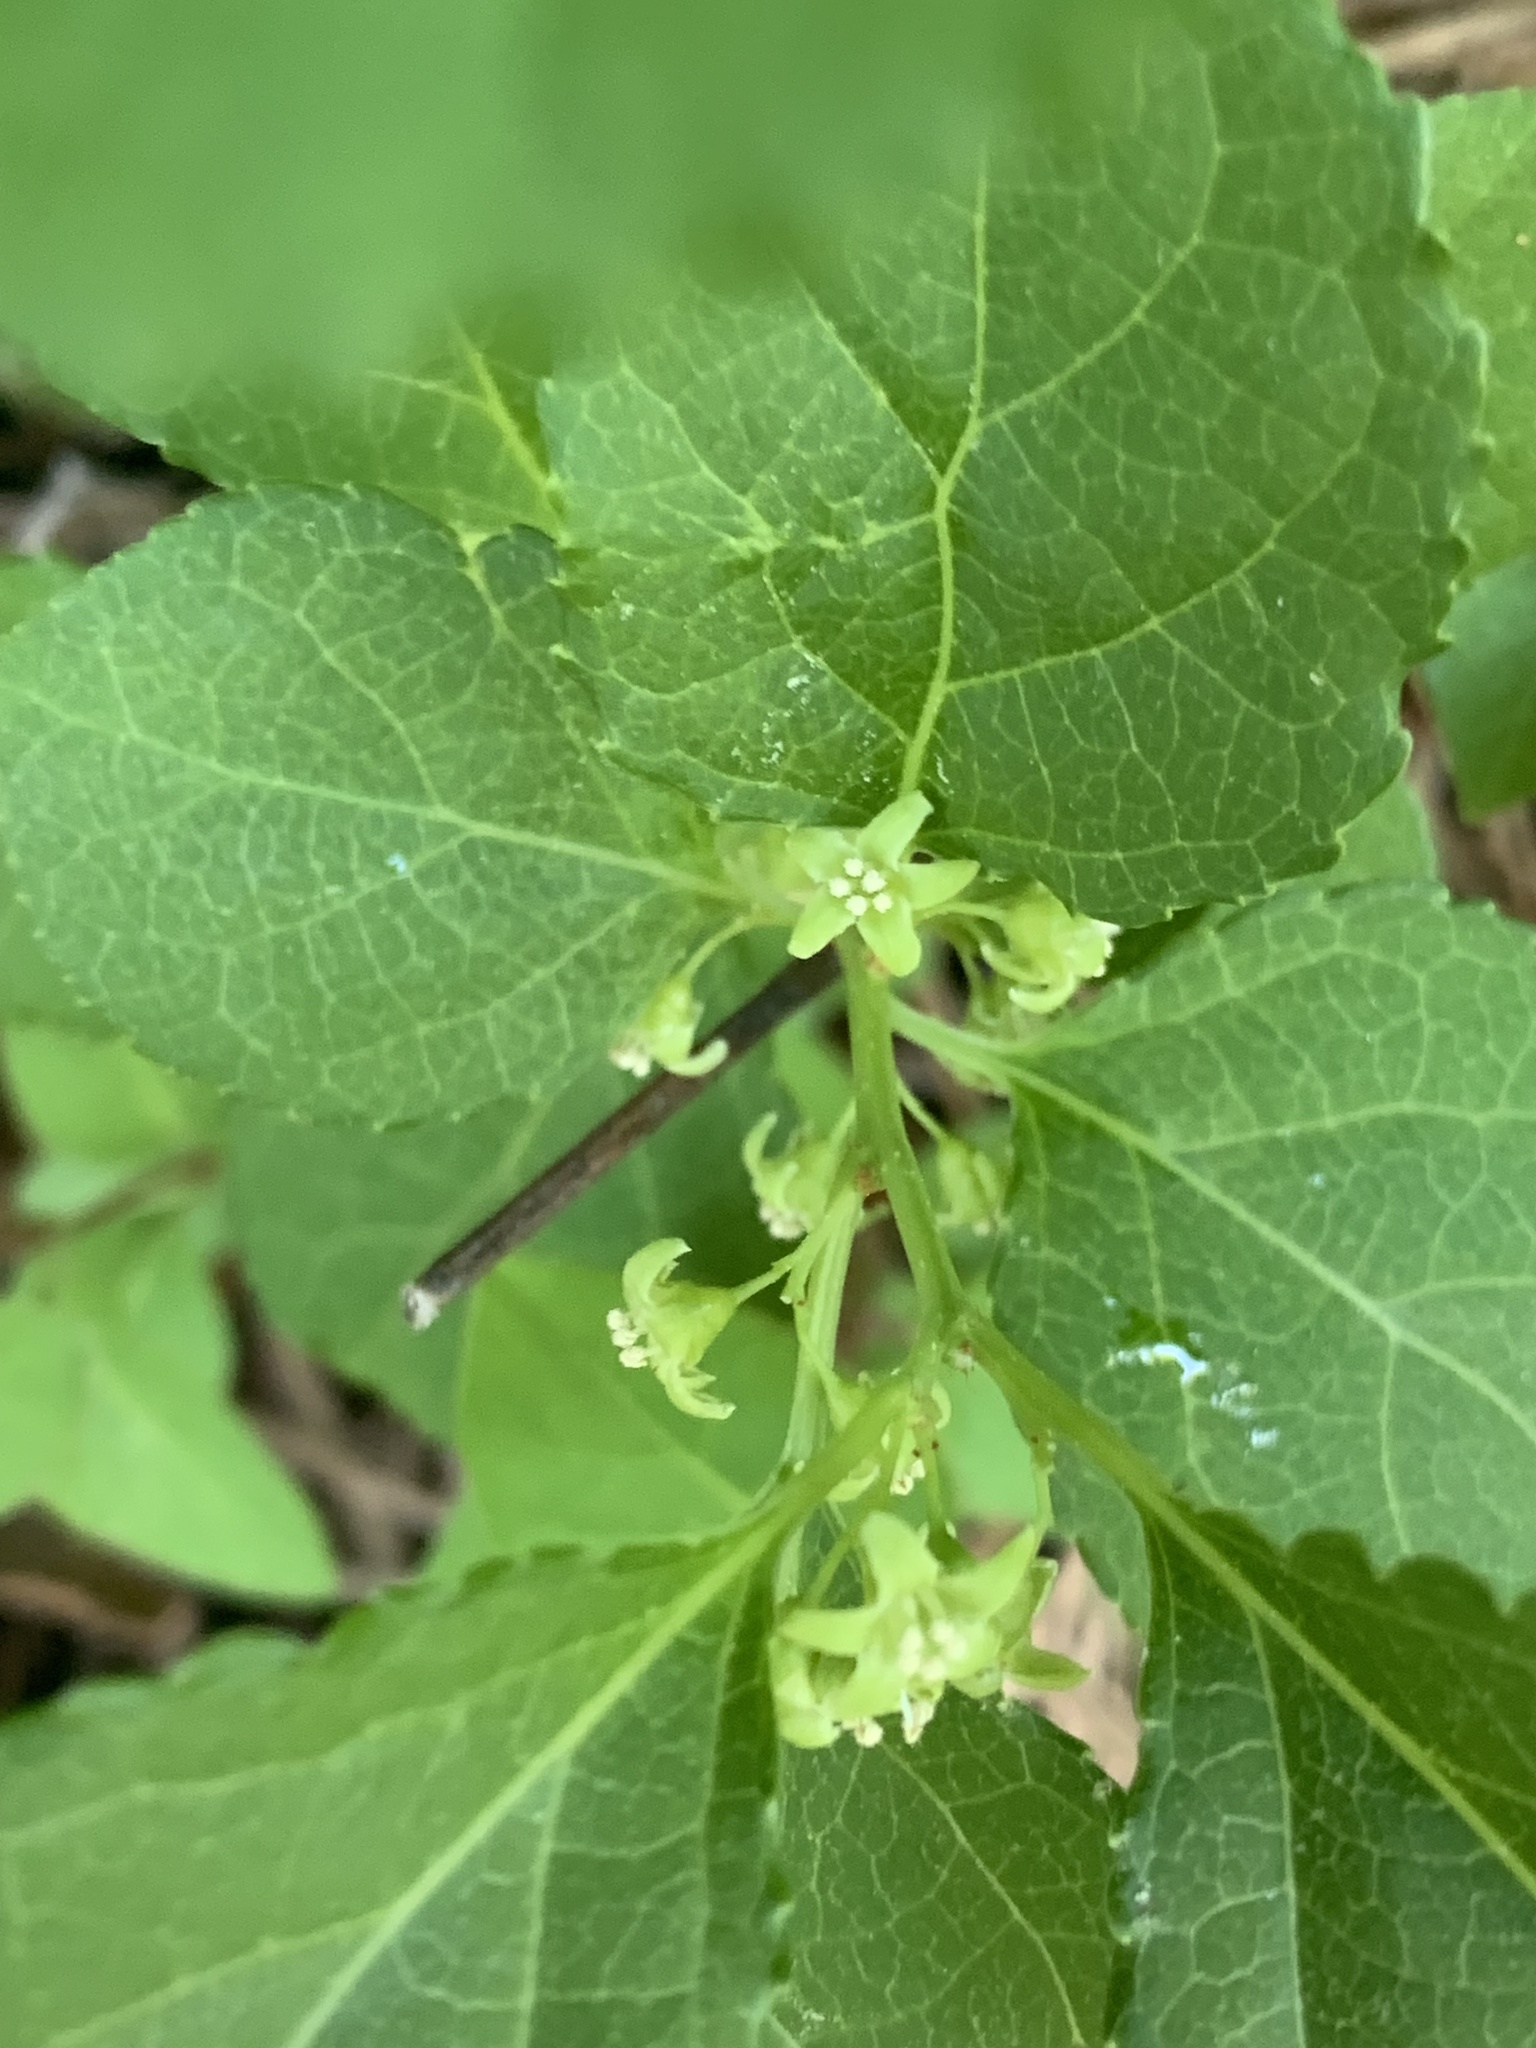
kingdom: Plantae
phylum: Tracheophyta
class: Magnoliopsida
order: Celastrales
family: Celastraceae
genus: Celastrus
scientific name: Celastrus orbiculatus
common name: Oriental bittersweet
